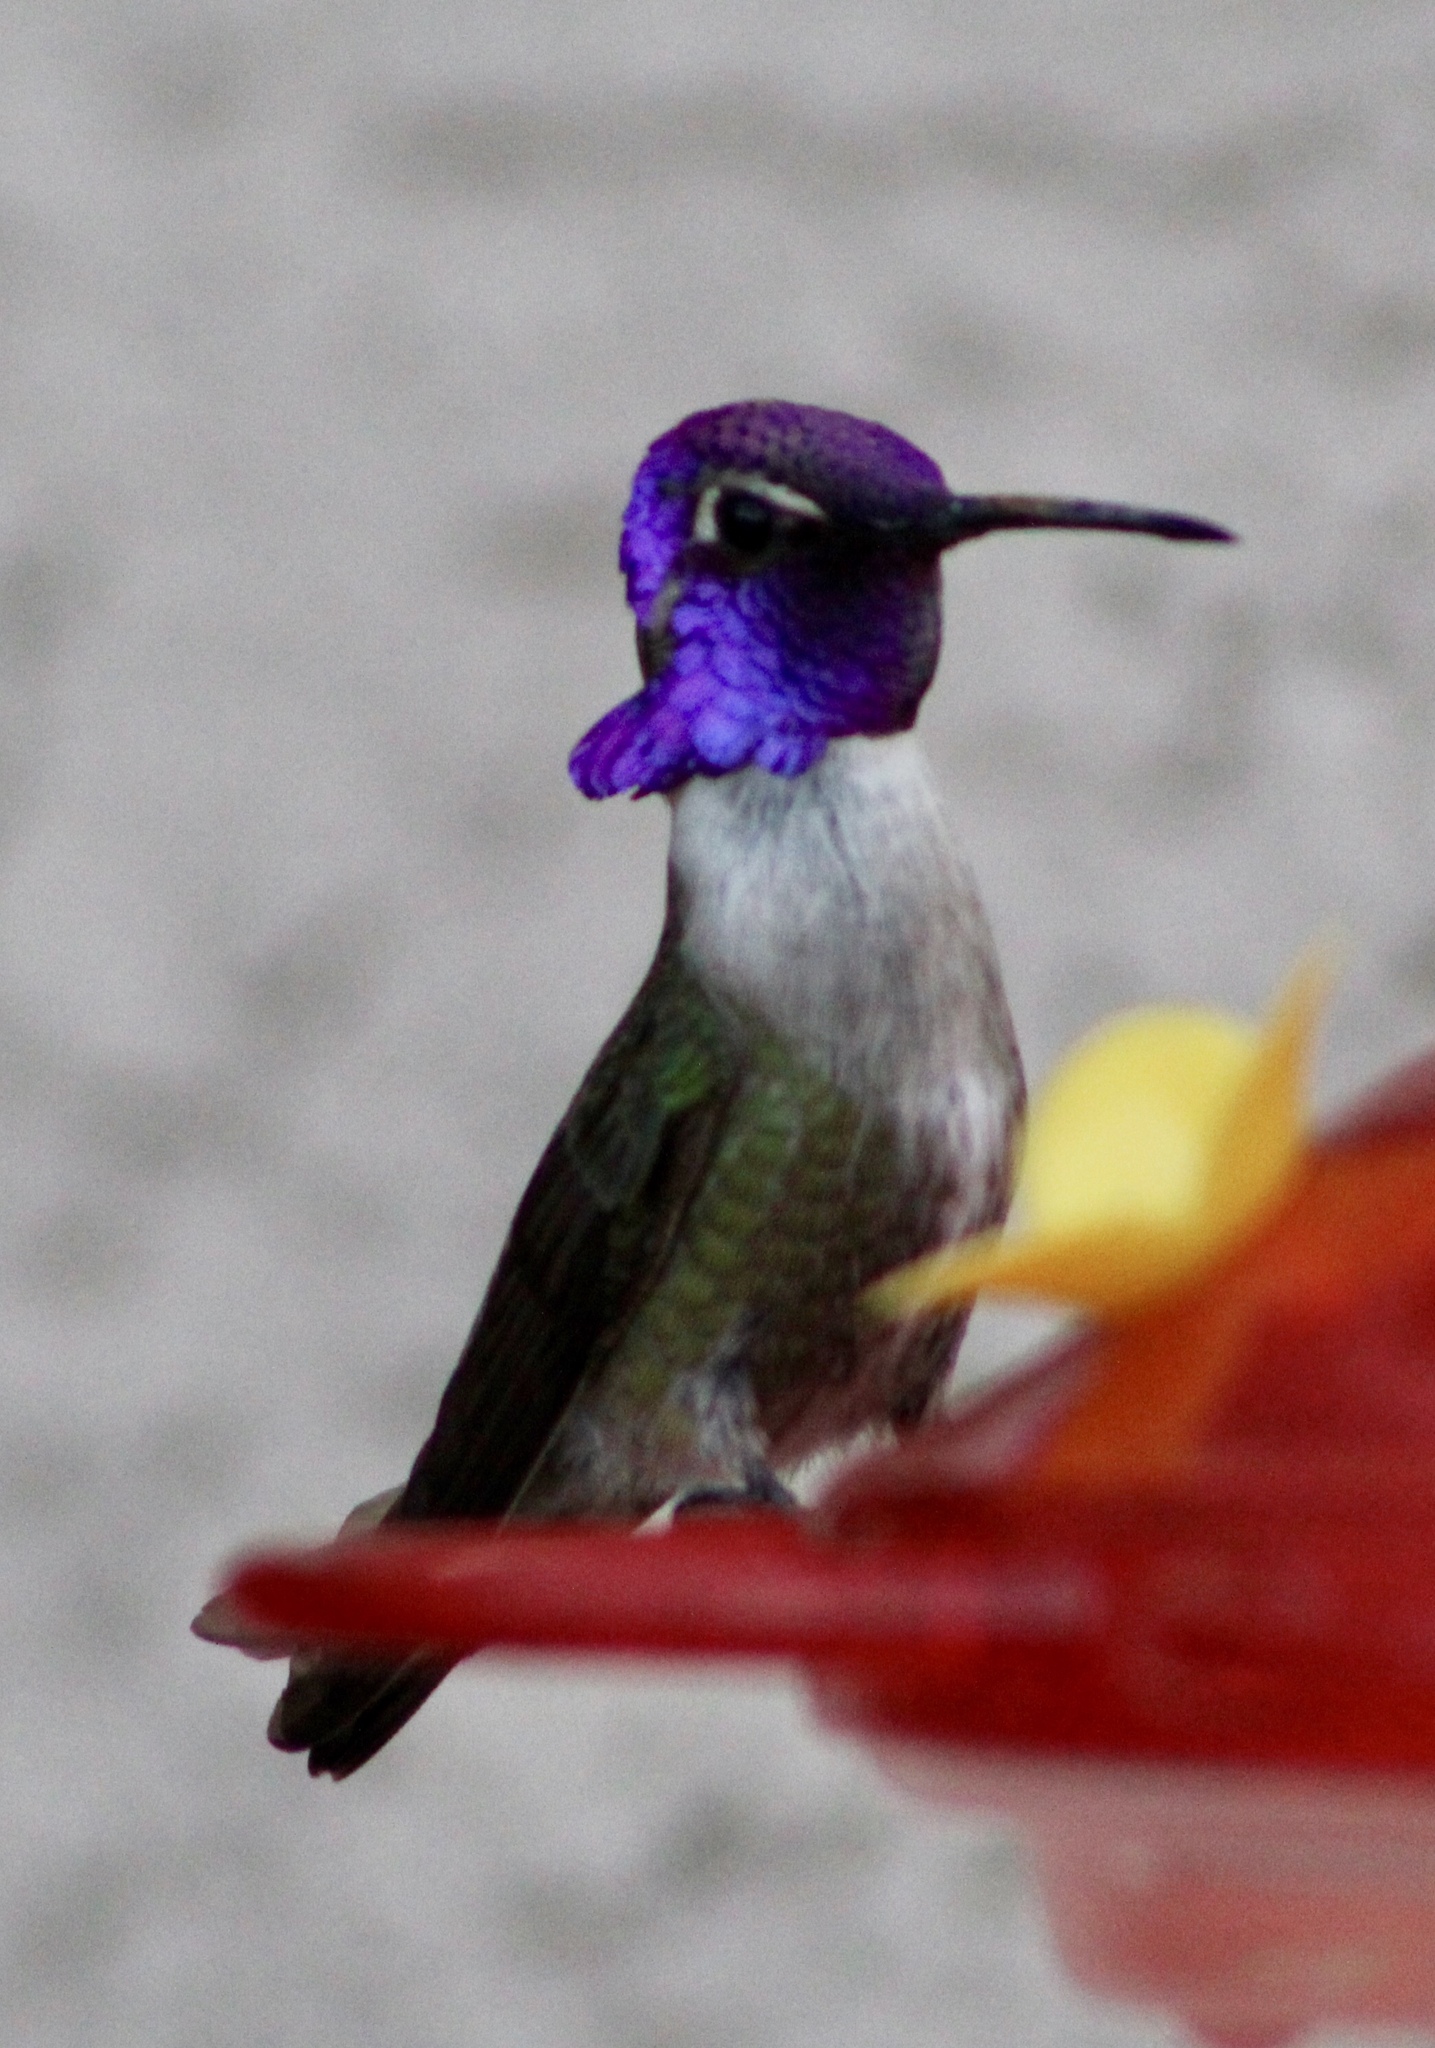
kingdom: Animalia
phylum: Chordata
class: Aves
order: Apodiformes
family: Trochilidae
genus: Calypte
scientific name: Calypte costae
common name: Costa's hummingbird
